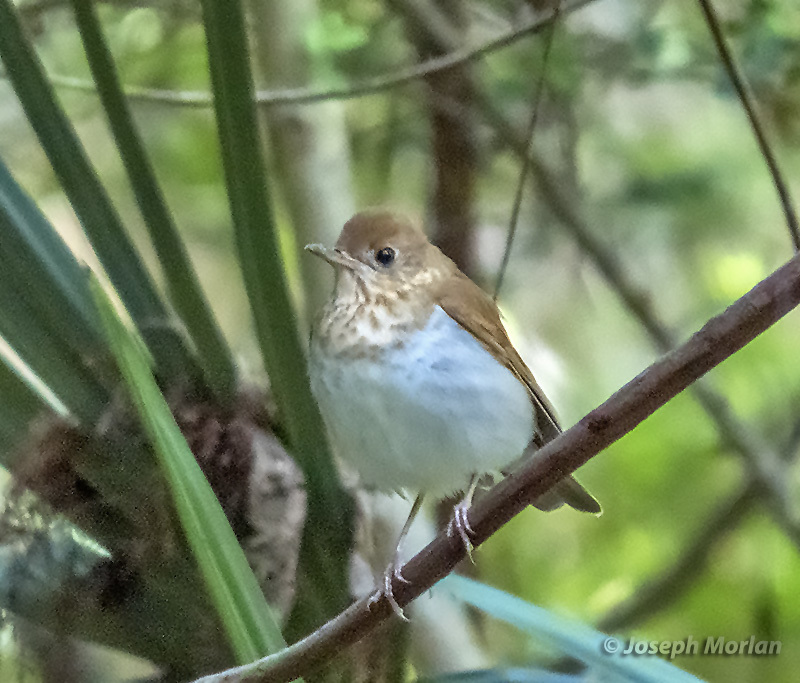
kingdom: Animalia
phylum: Chordata
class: Aves
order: Passeriformes
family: Turdidae
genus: Catharus
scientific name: Catharus fuscescens
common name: Veery
